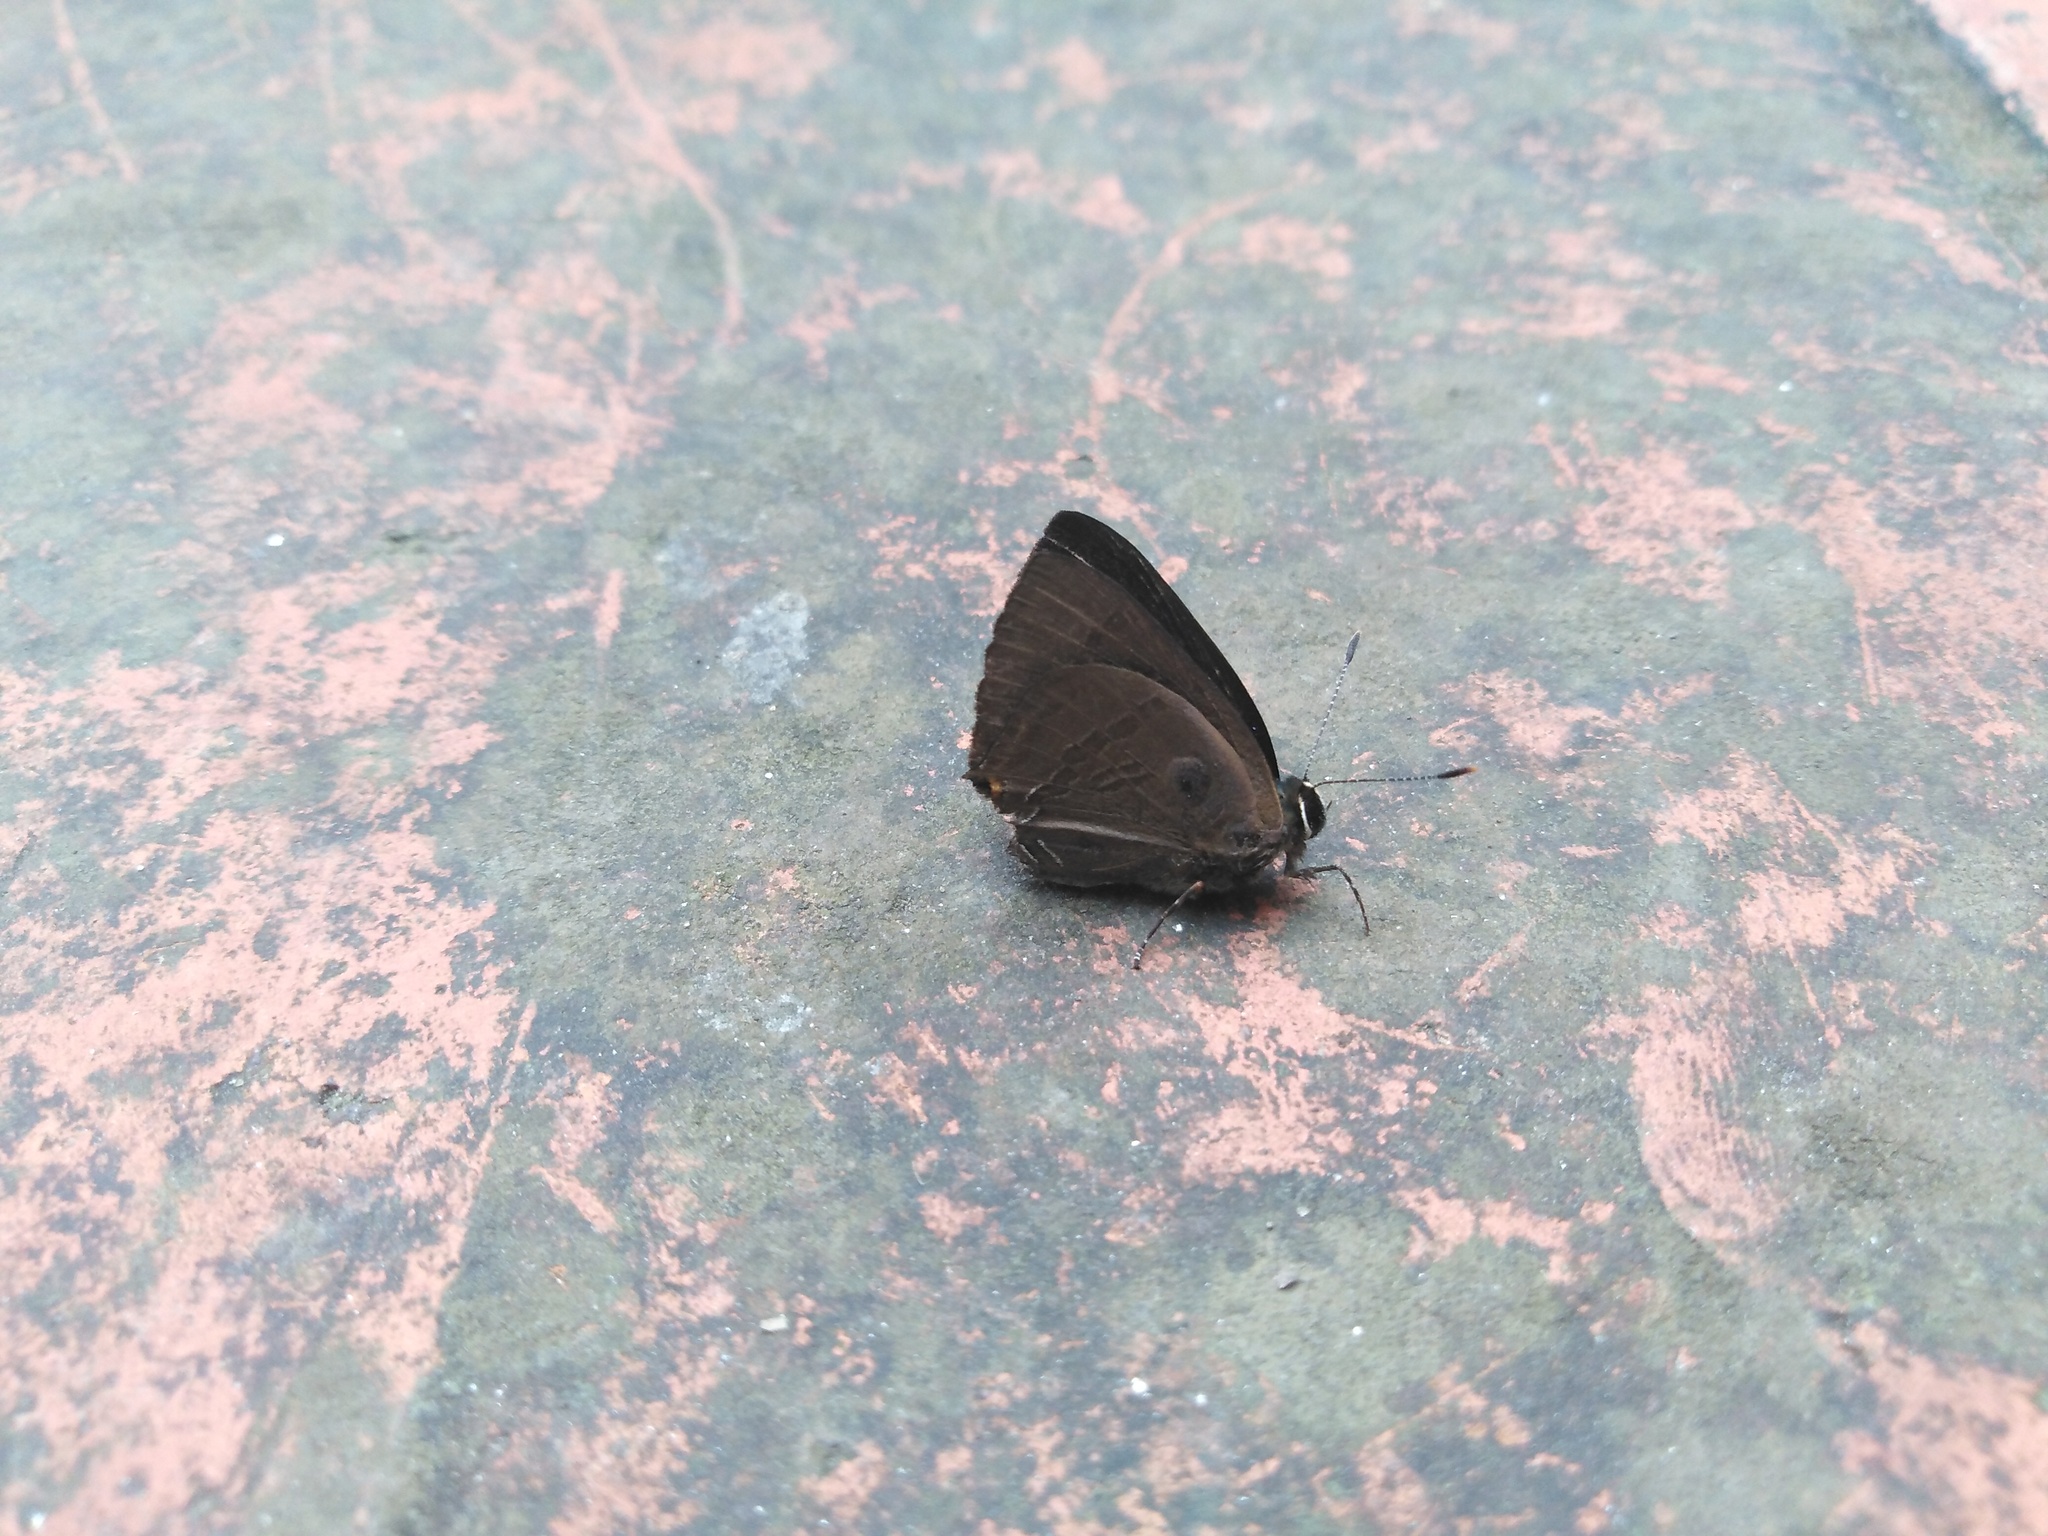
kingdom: Animalia
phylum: Arthropoda
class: Insecta
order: Lepidoptera
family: Lycaenidae
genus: Rapala
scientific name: Rapala manea
